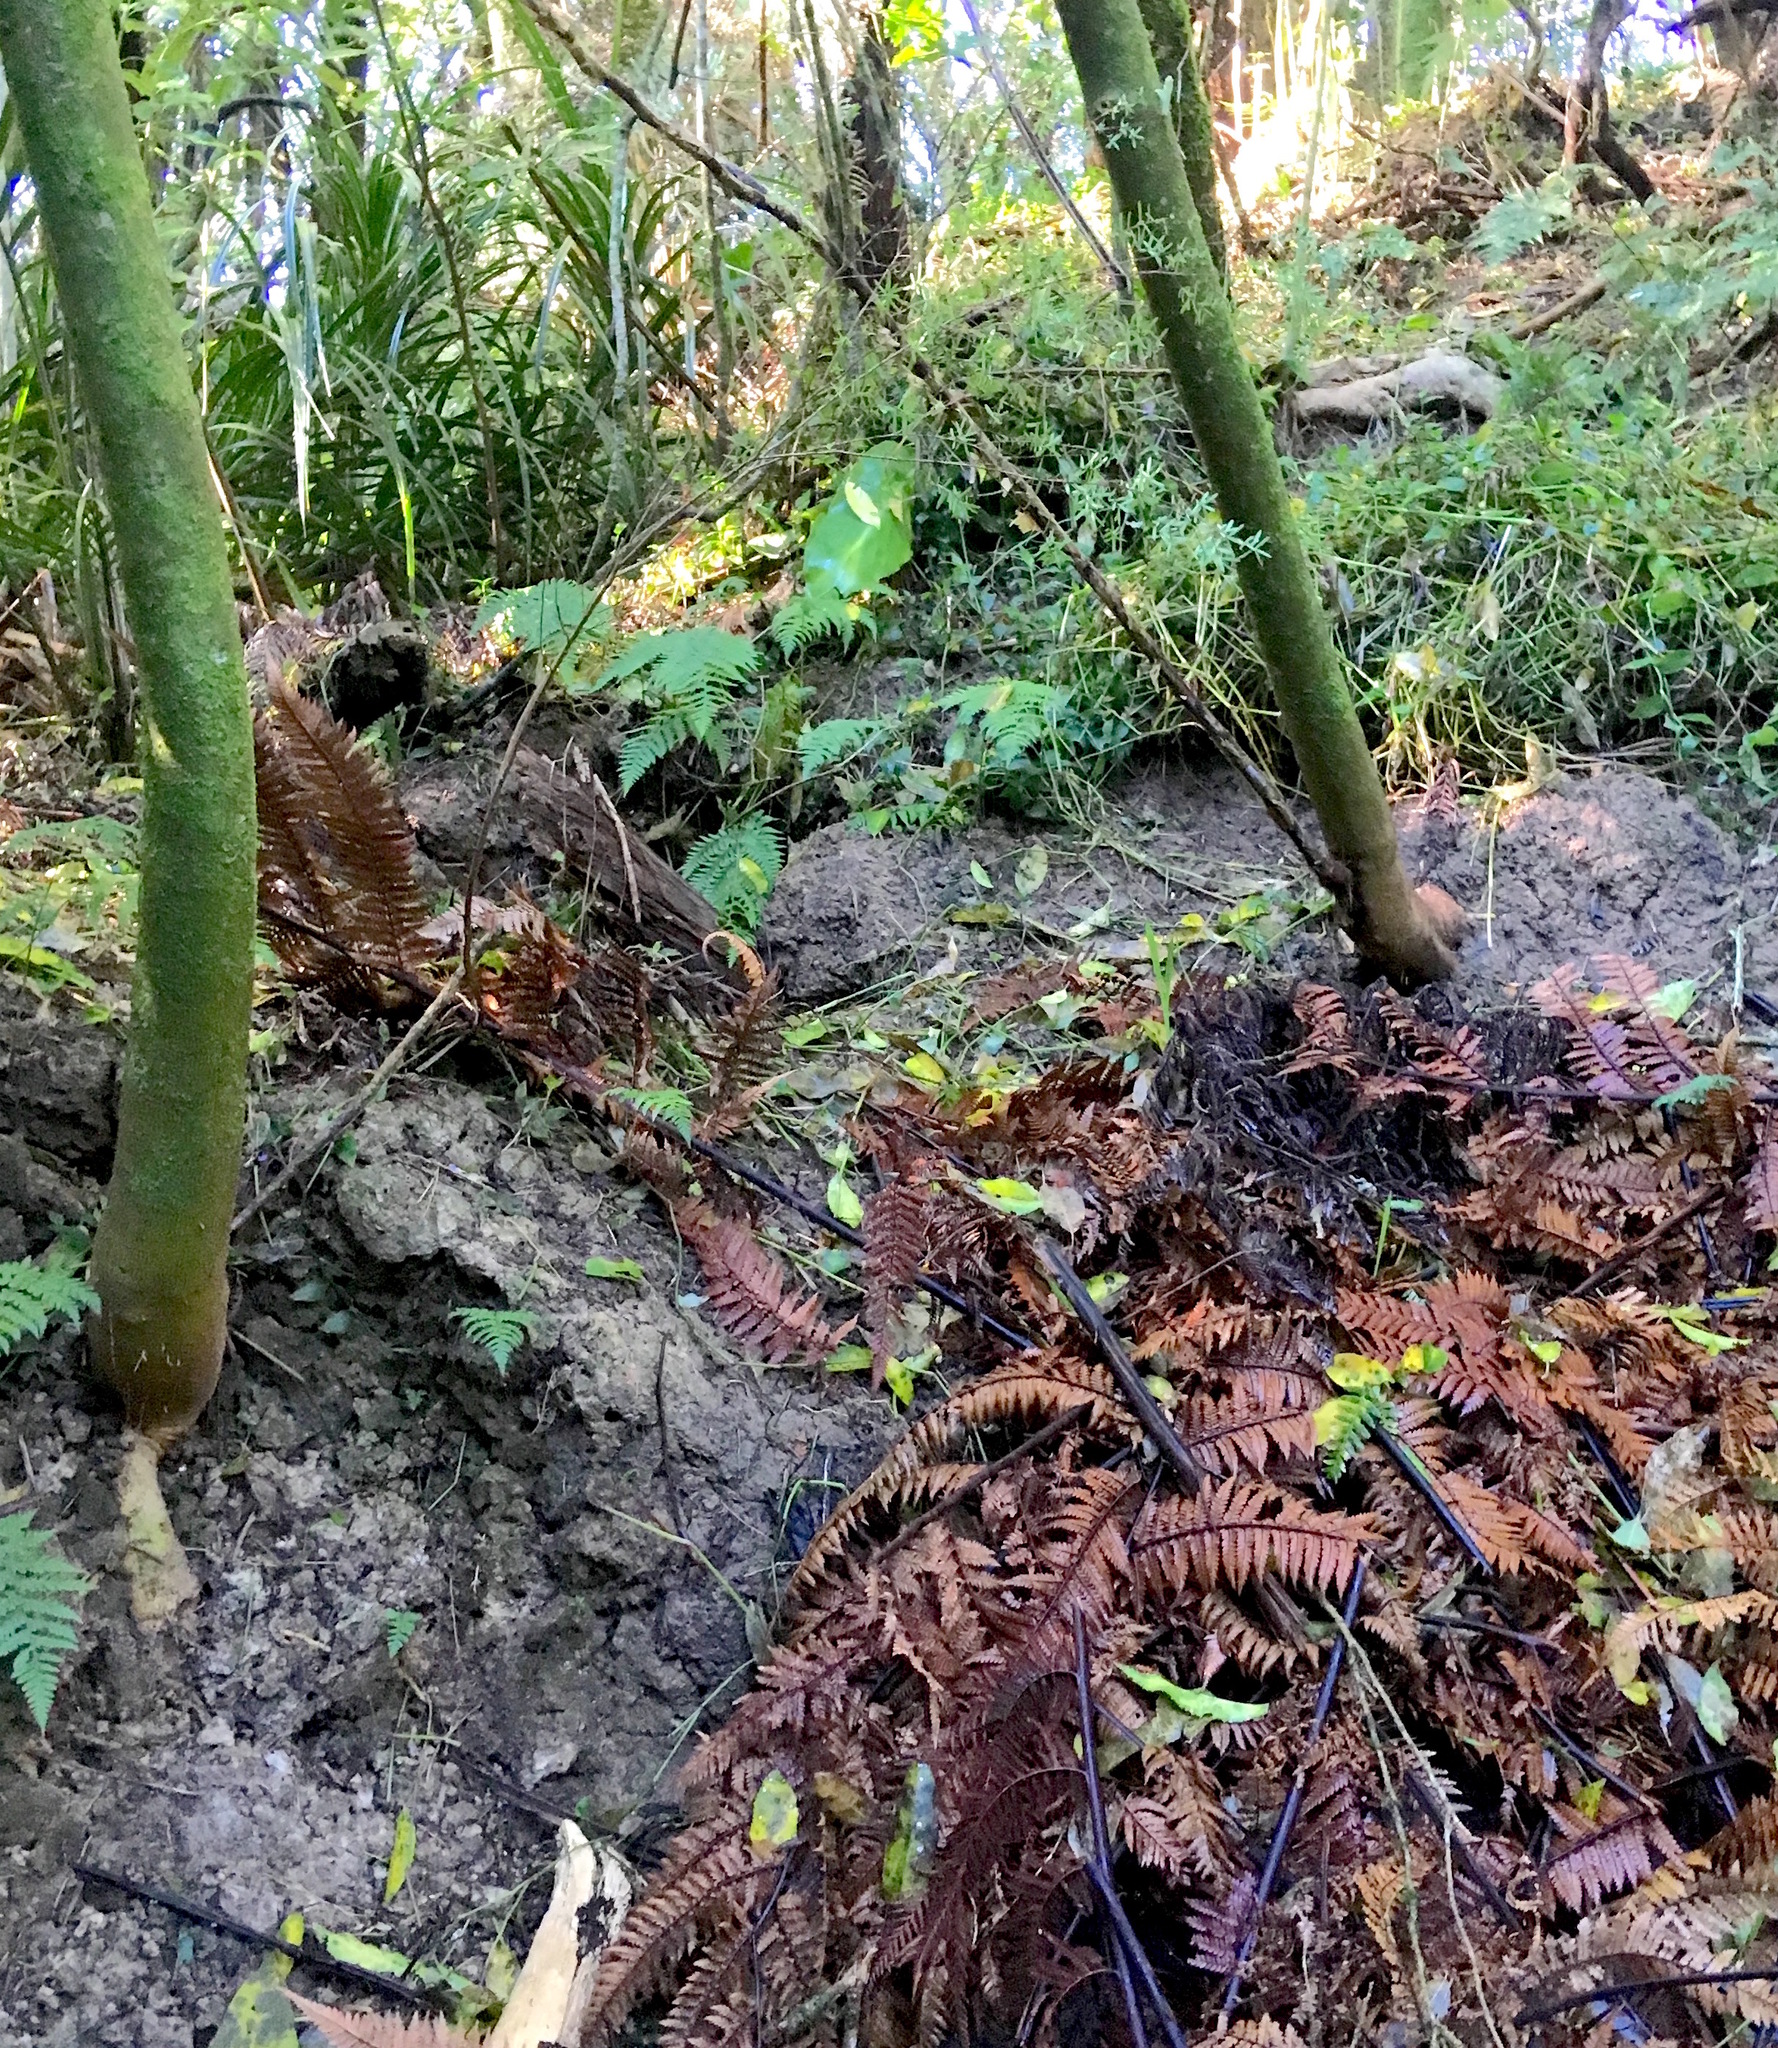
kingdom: Plantae
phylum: Tracheophyta
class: Liliopsida
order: Commelinales
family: Commelinaceae
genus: Tradescantia
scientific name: Tradescantia fluminensis
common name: Wandering-jew
